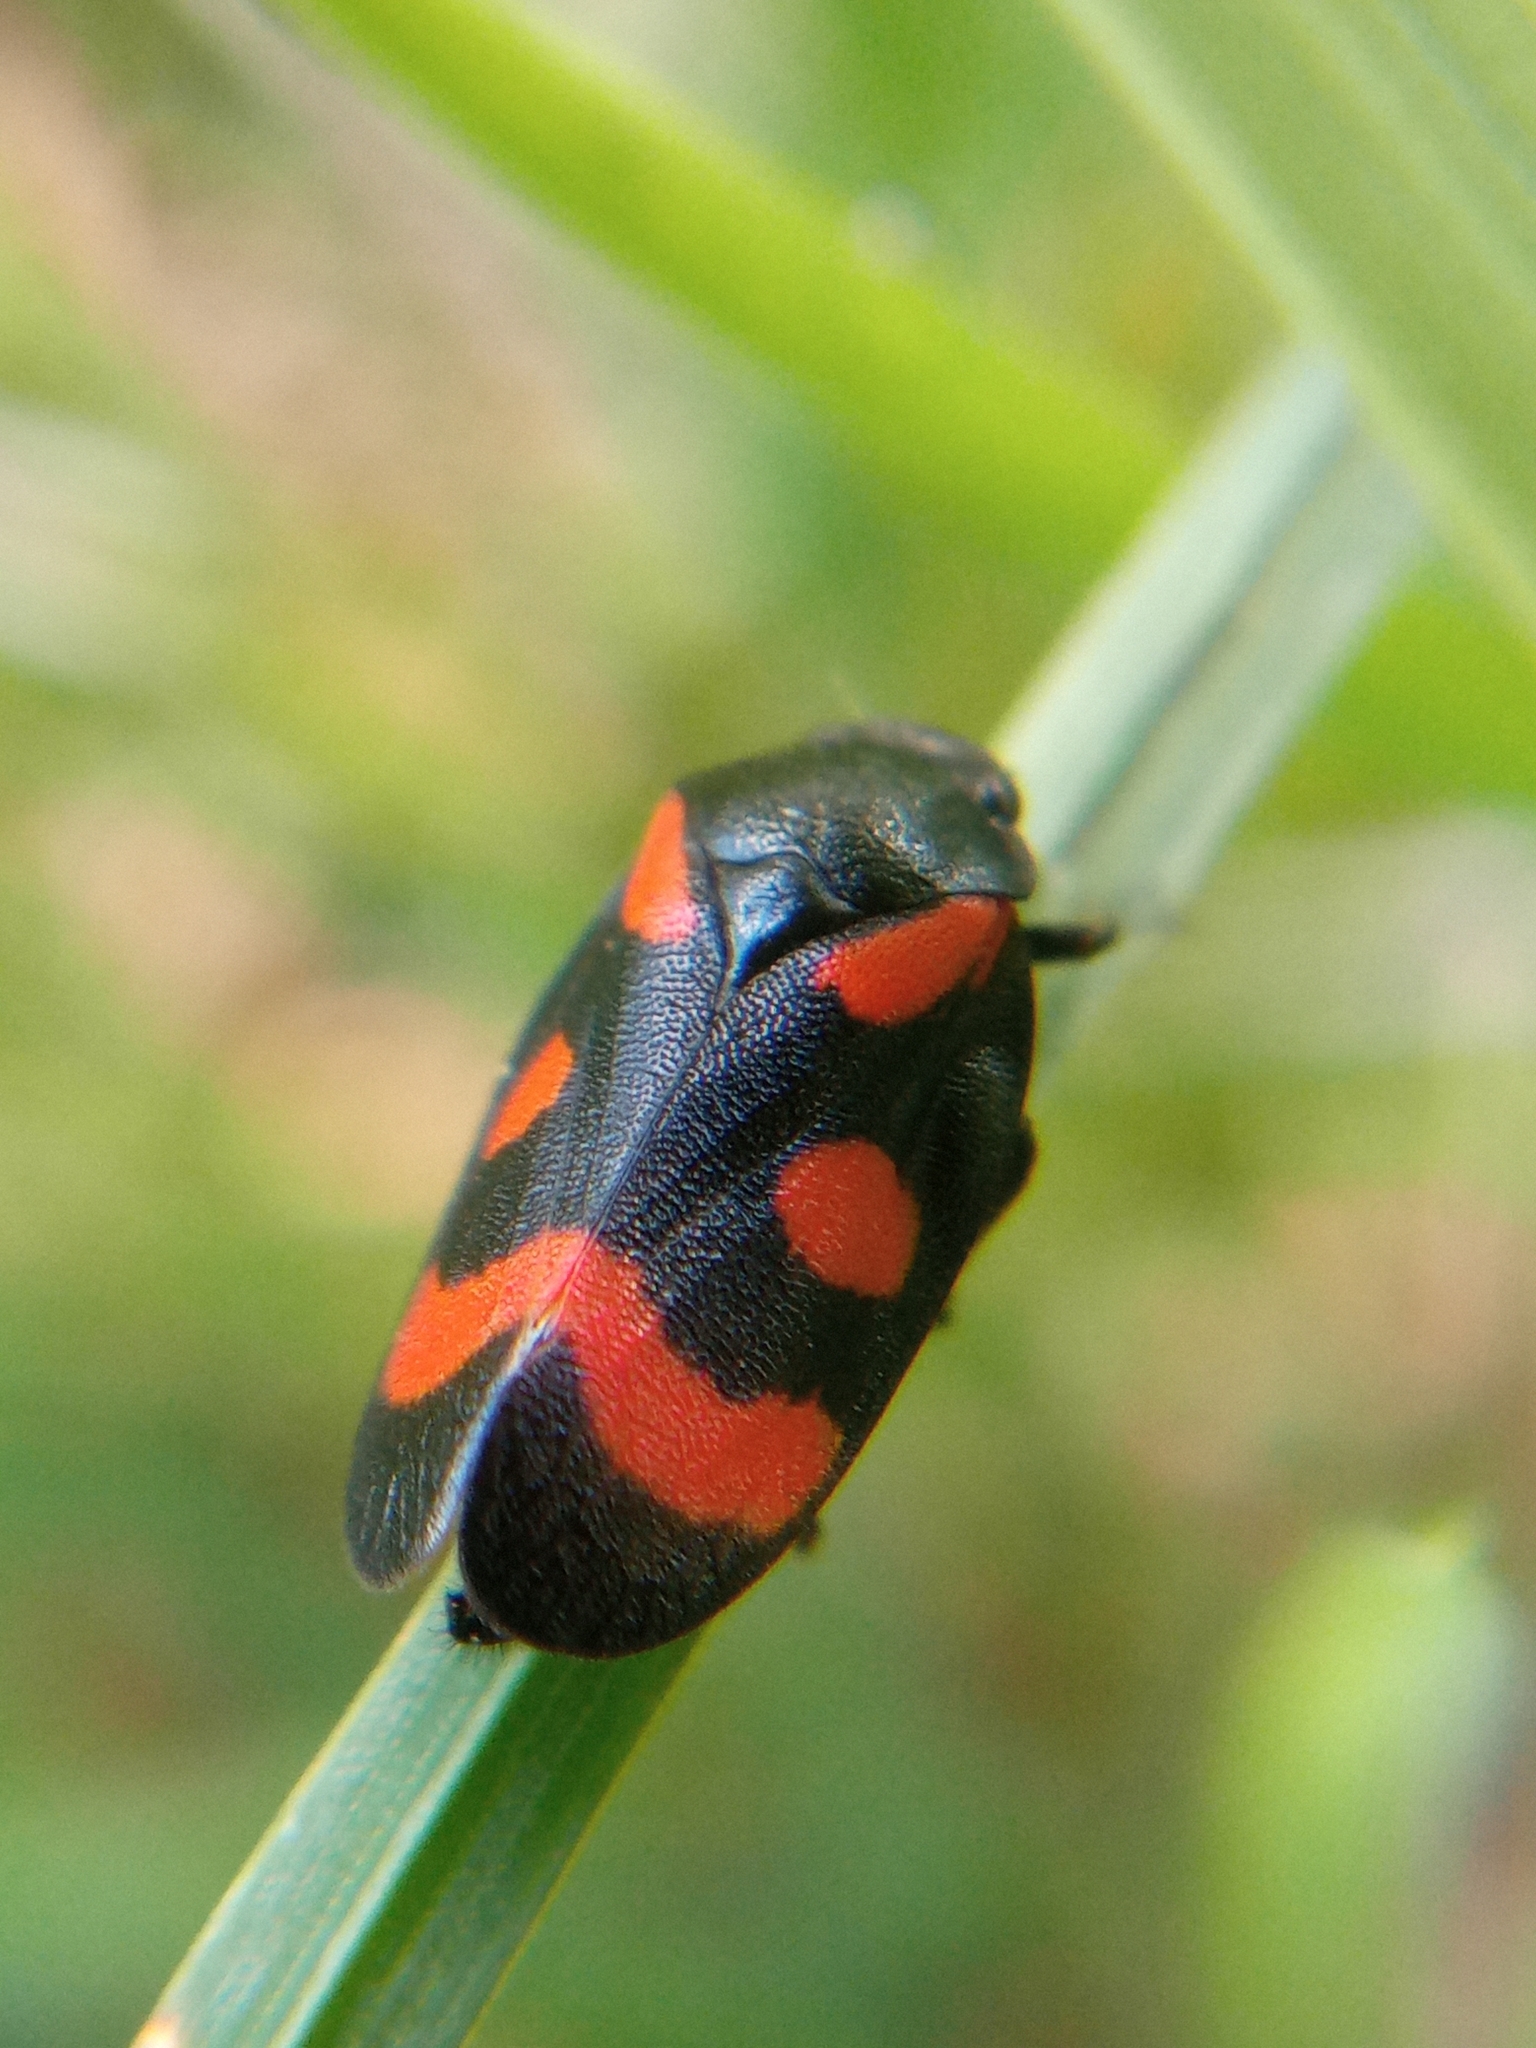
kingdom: Animalia
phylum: Arthropoda
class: Insecta
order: Hemiptera
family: Cercopidae
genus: Cercopis
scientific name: Cercopis
